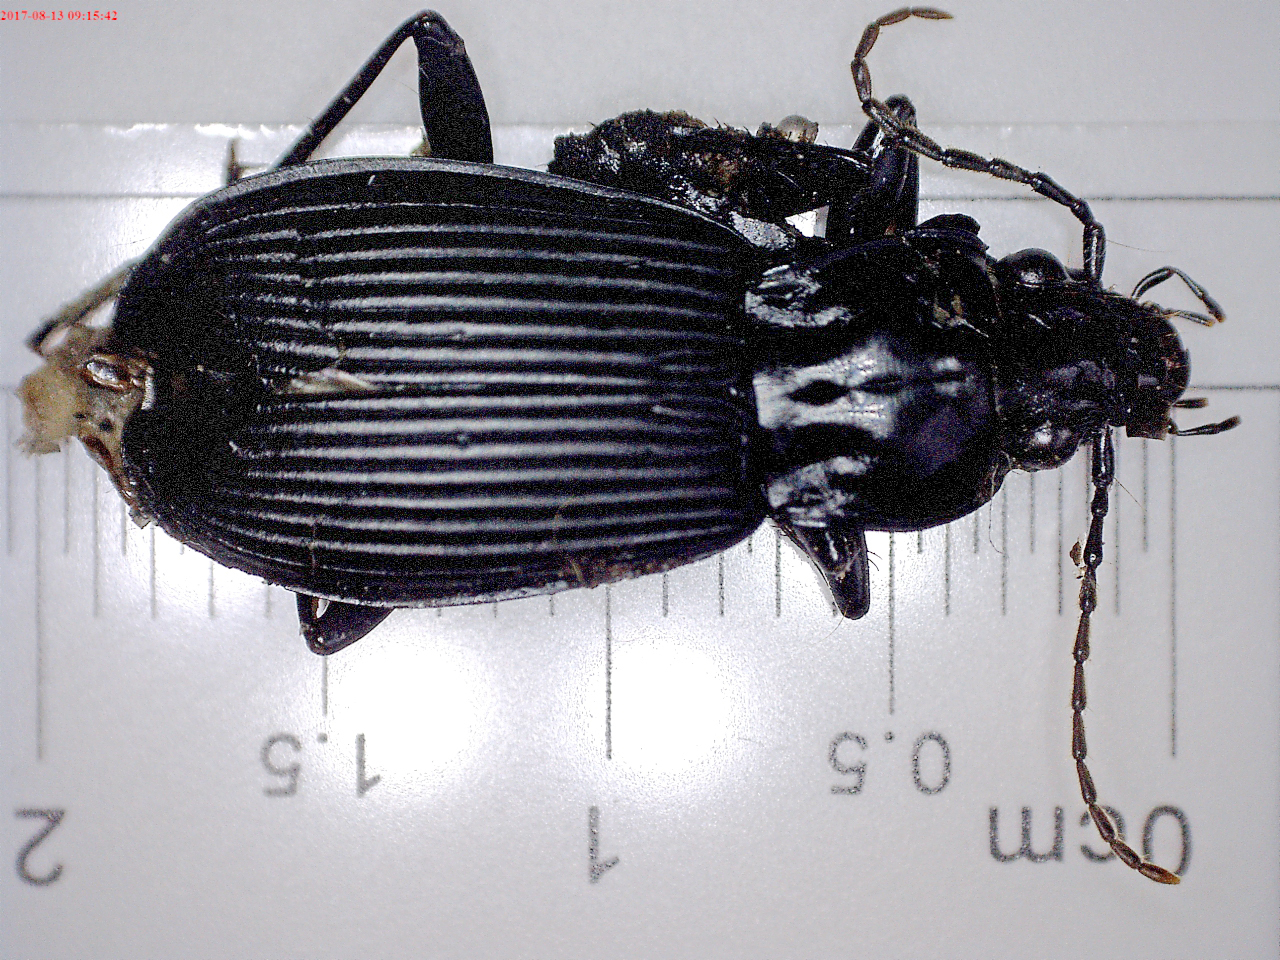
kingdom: Animalia
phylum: Arthropoda
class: Insecta
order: Coleoptera
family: Carabidae
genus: Pterostichus
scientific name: Pterostichus niger
